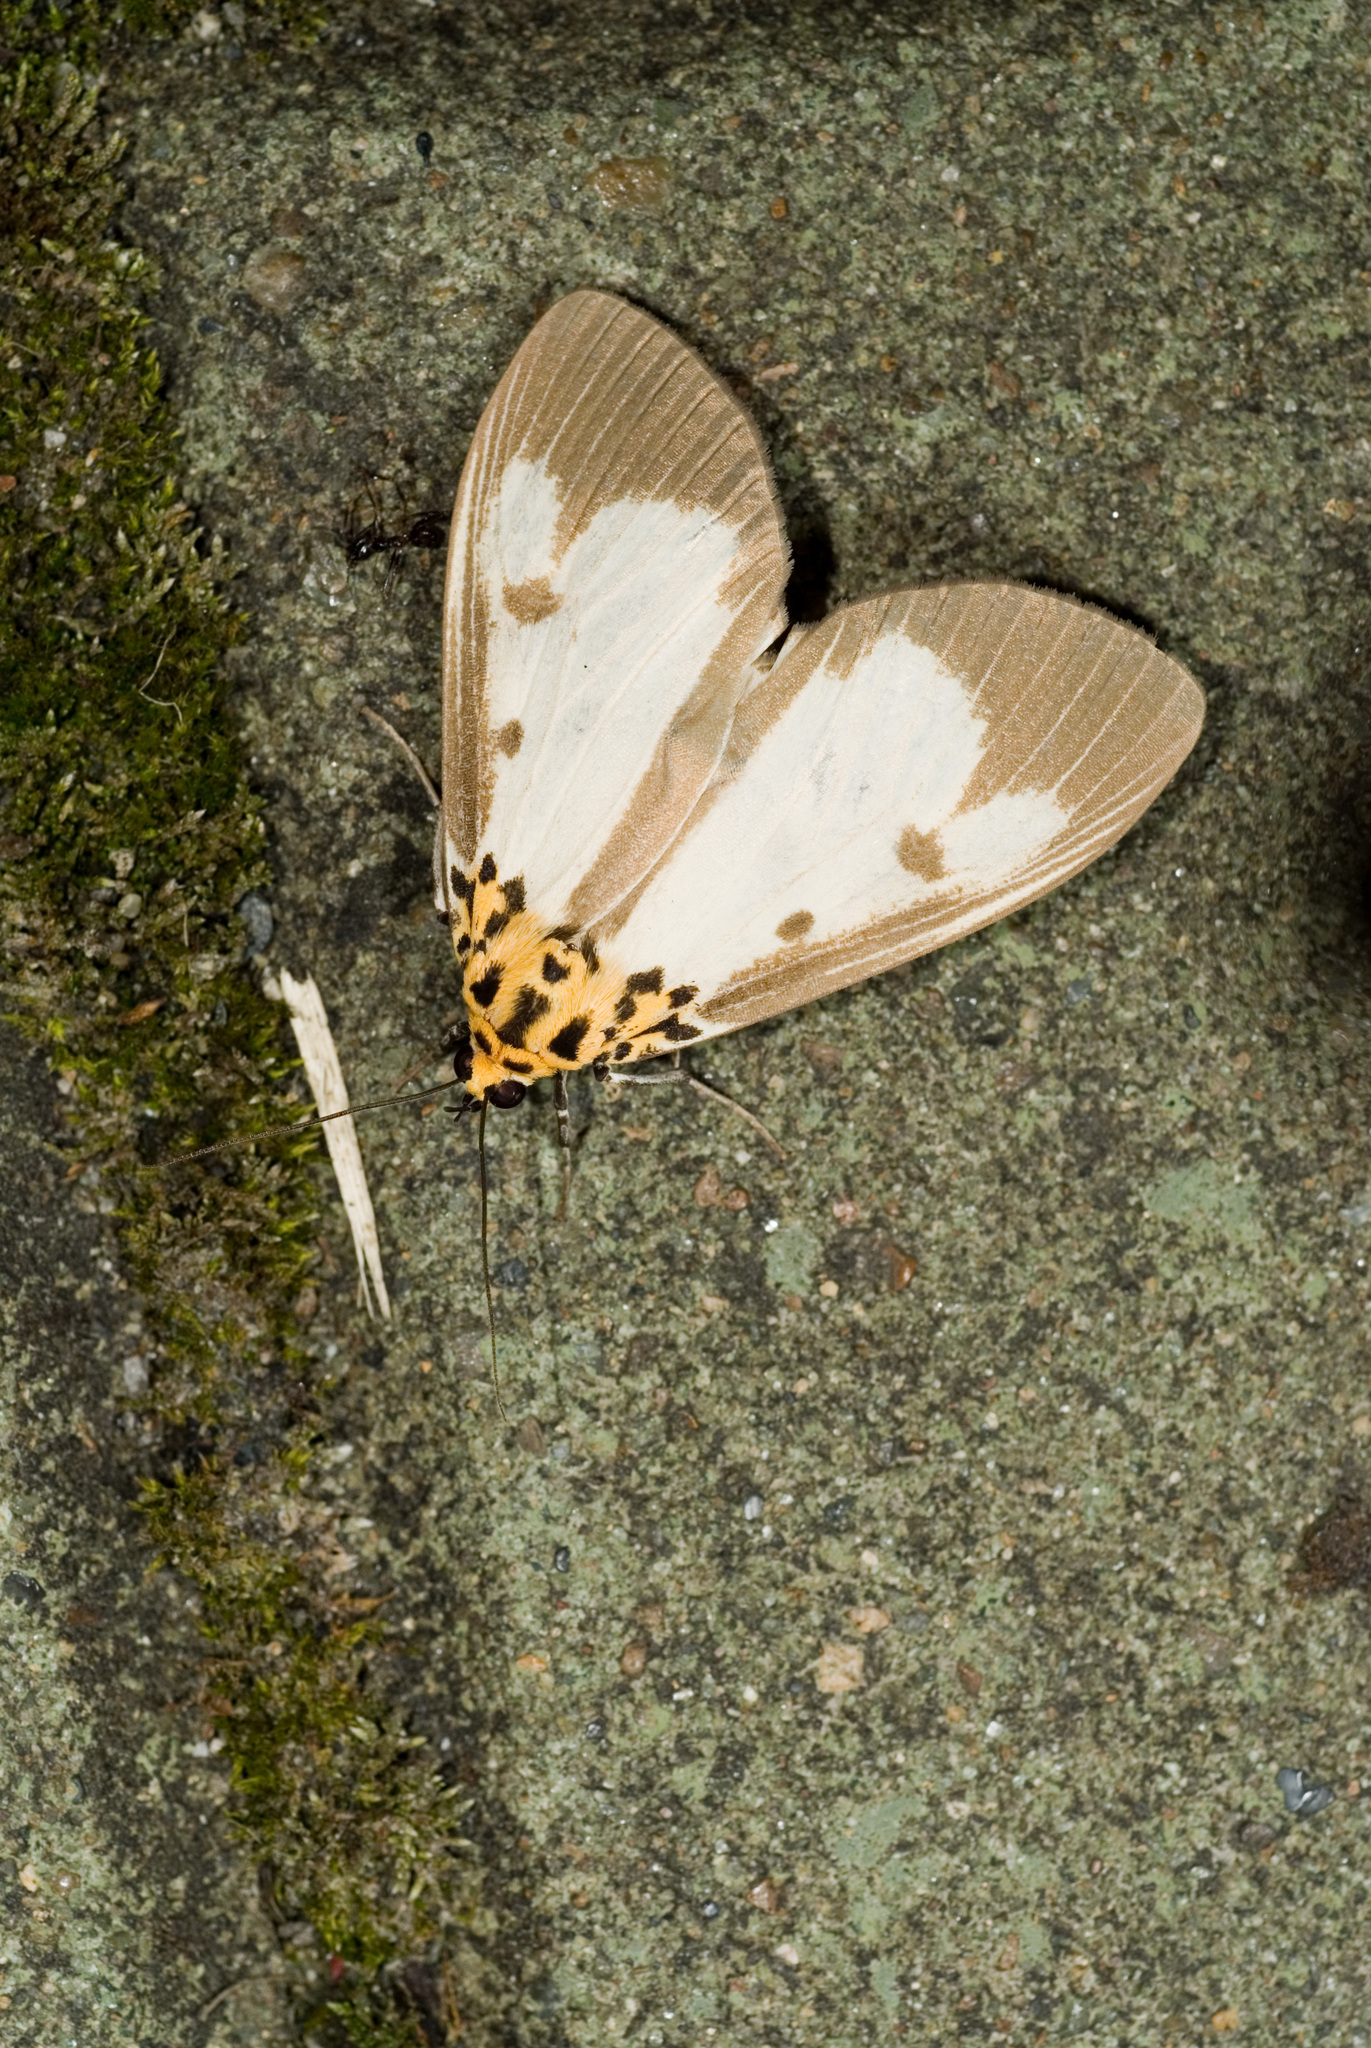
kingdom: Animalia
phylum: Arthropoda
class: Insecta
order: Lepidoptera
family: Erebidae
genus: Asota
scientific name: Asota plana
